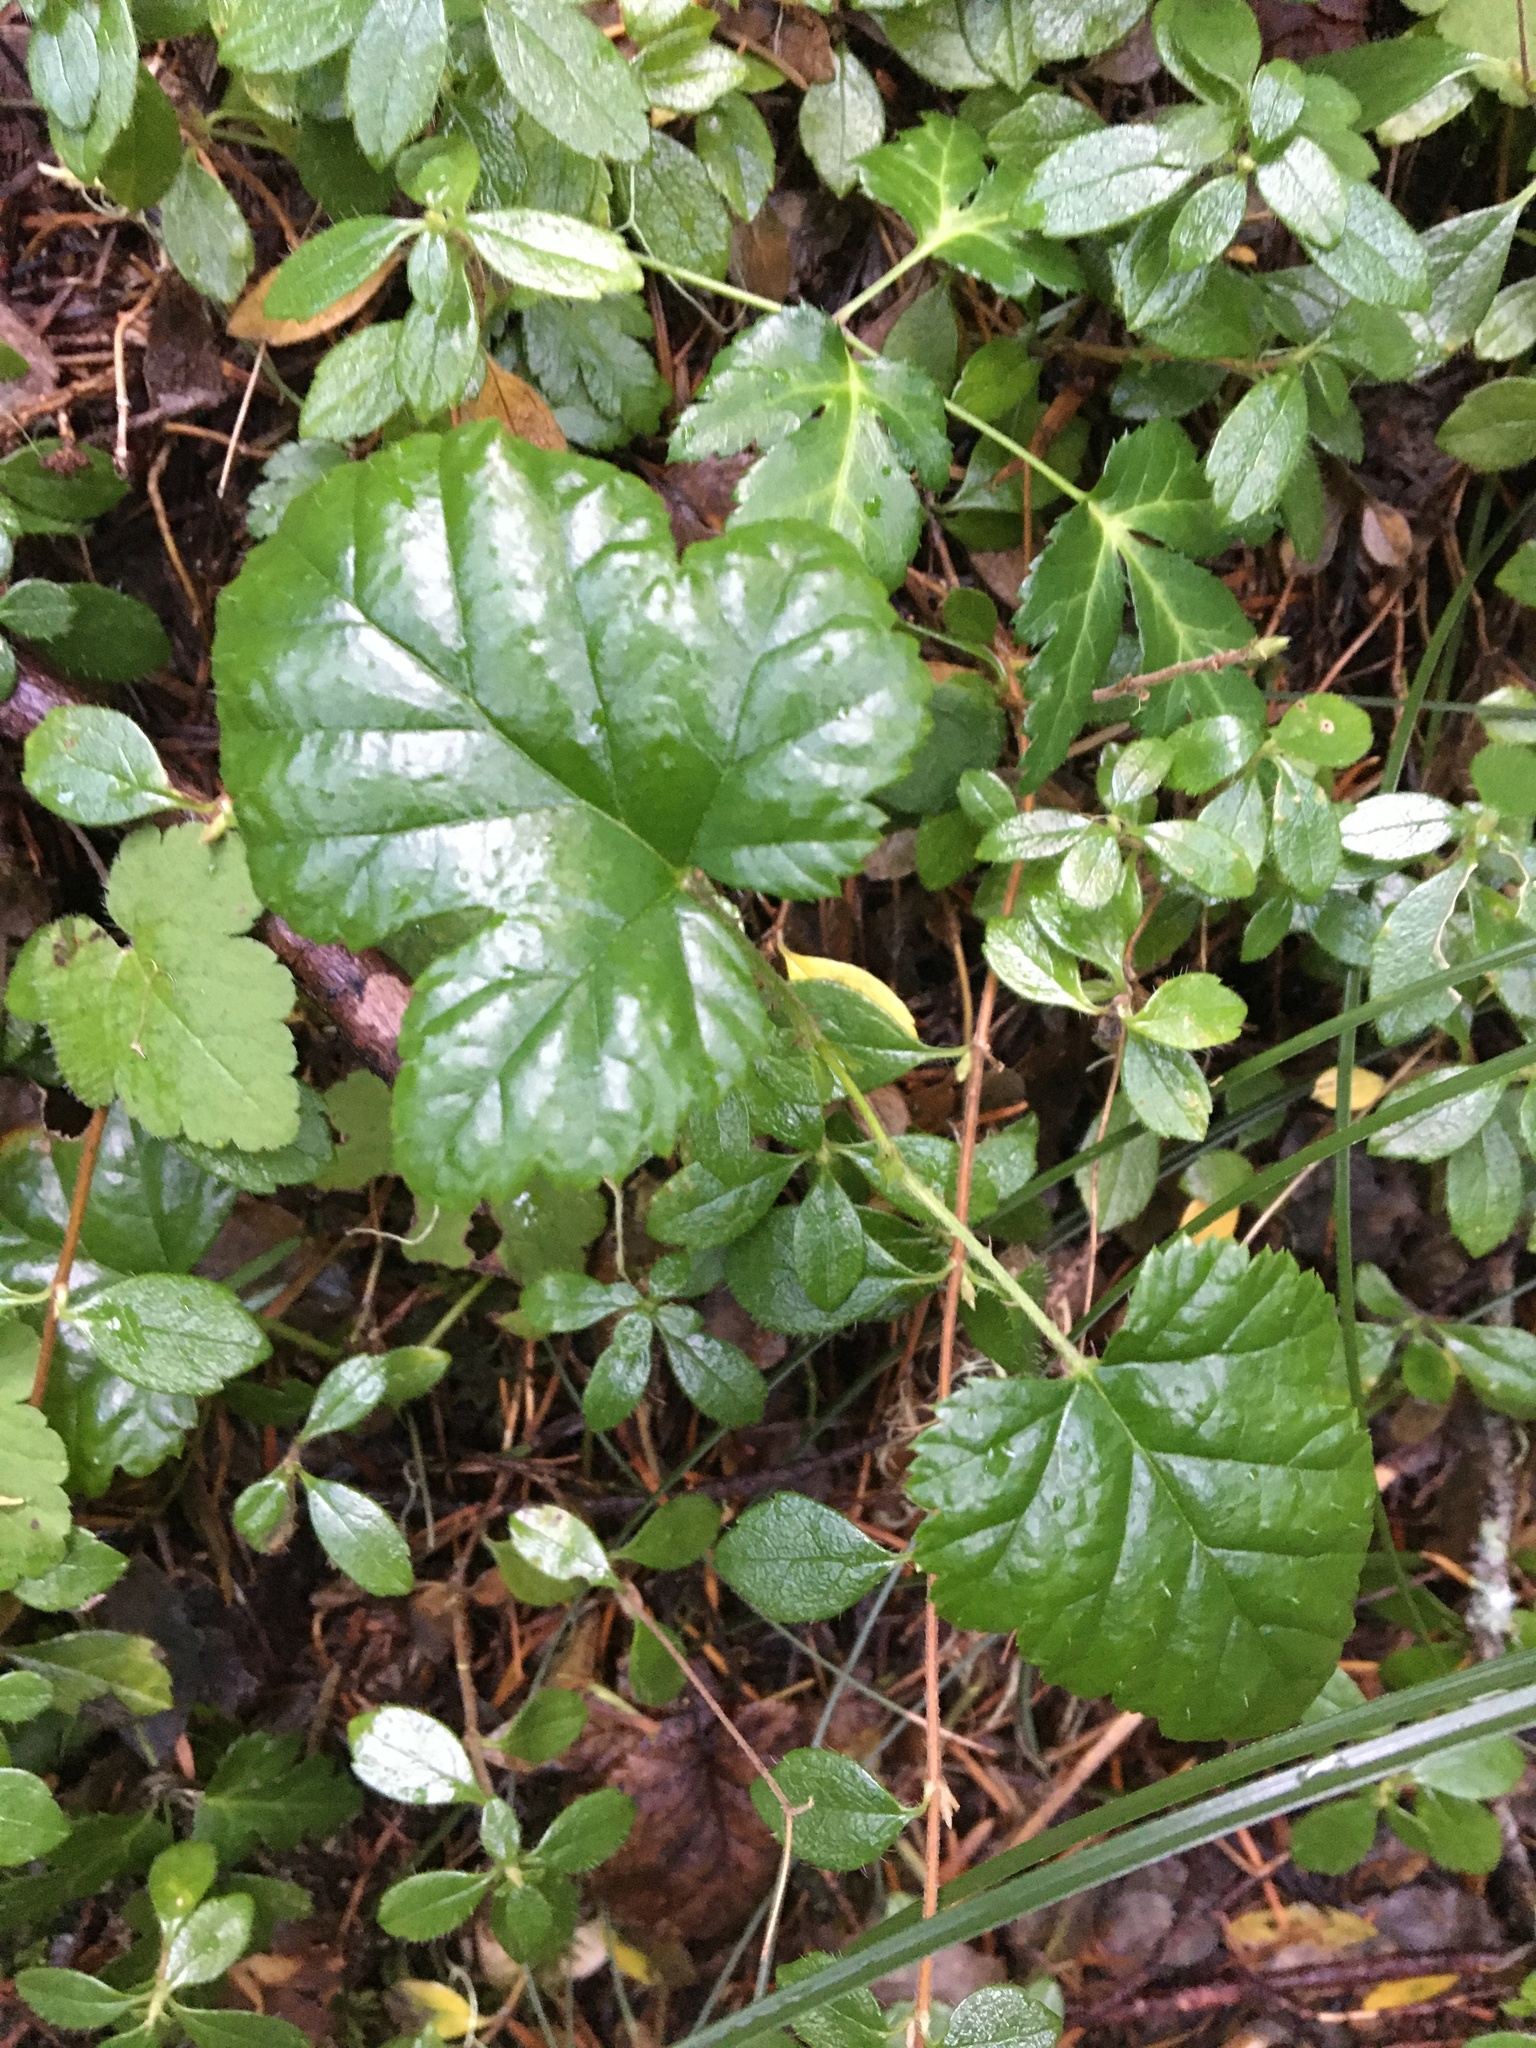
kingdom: Plantae
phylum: Tracheophyta
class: Magnoliopsida
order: Rosales
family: Rosaceae
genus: Rubus
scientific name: Rubus nivalis
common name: Dwarf snow bramble
